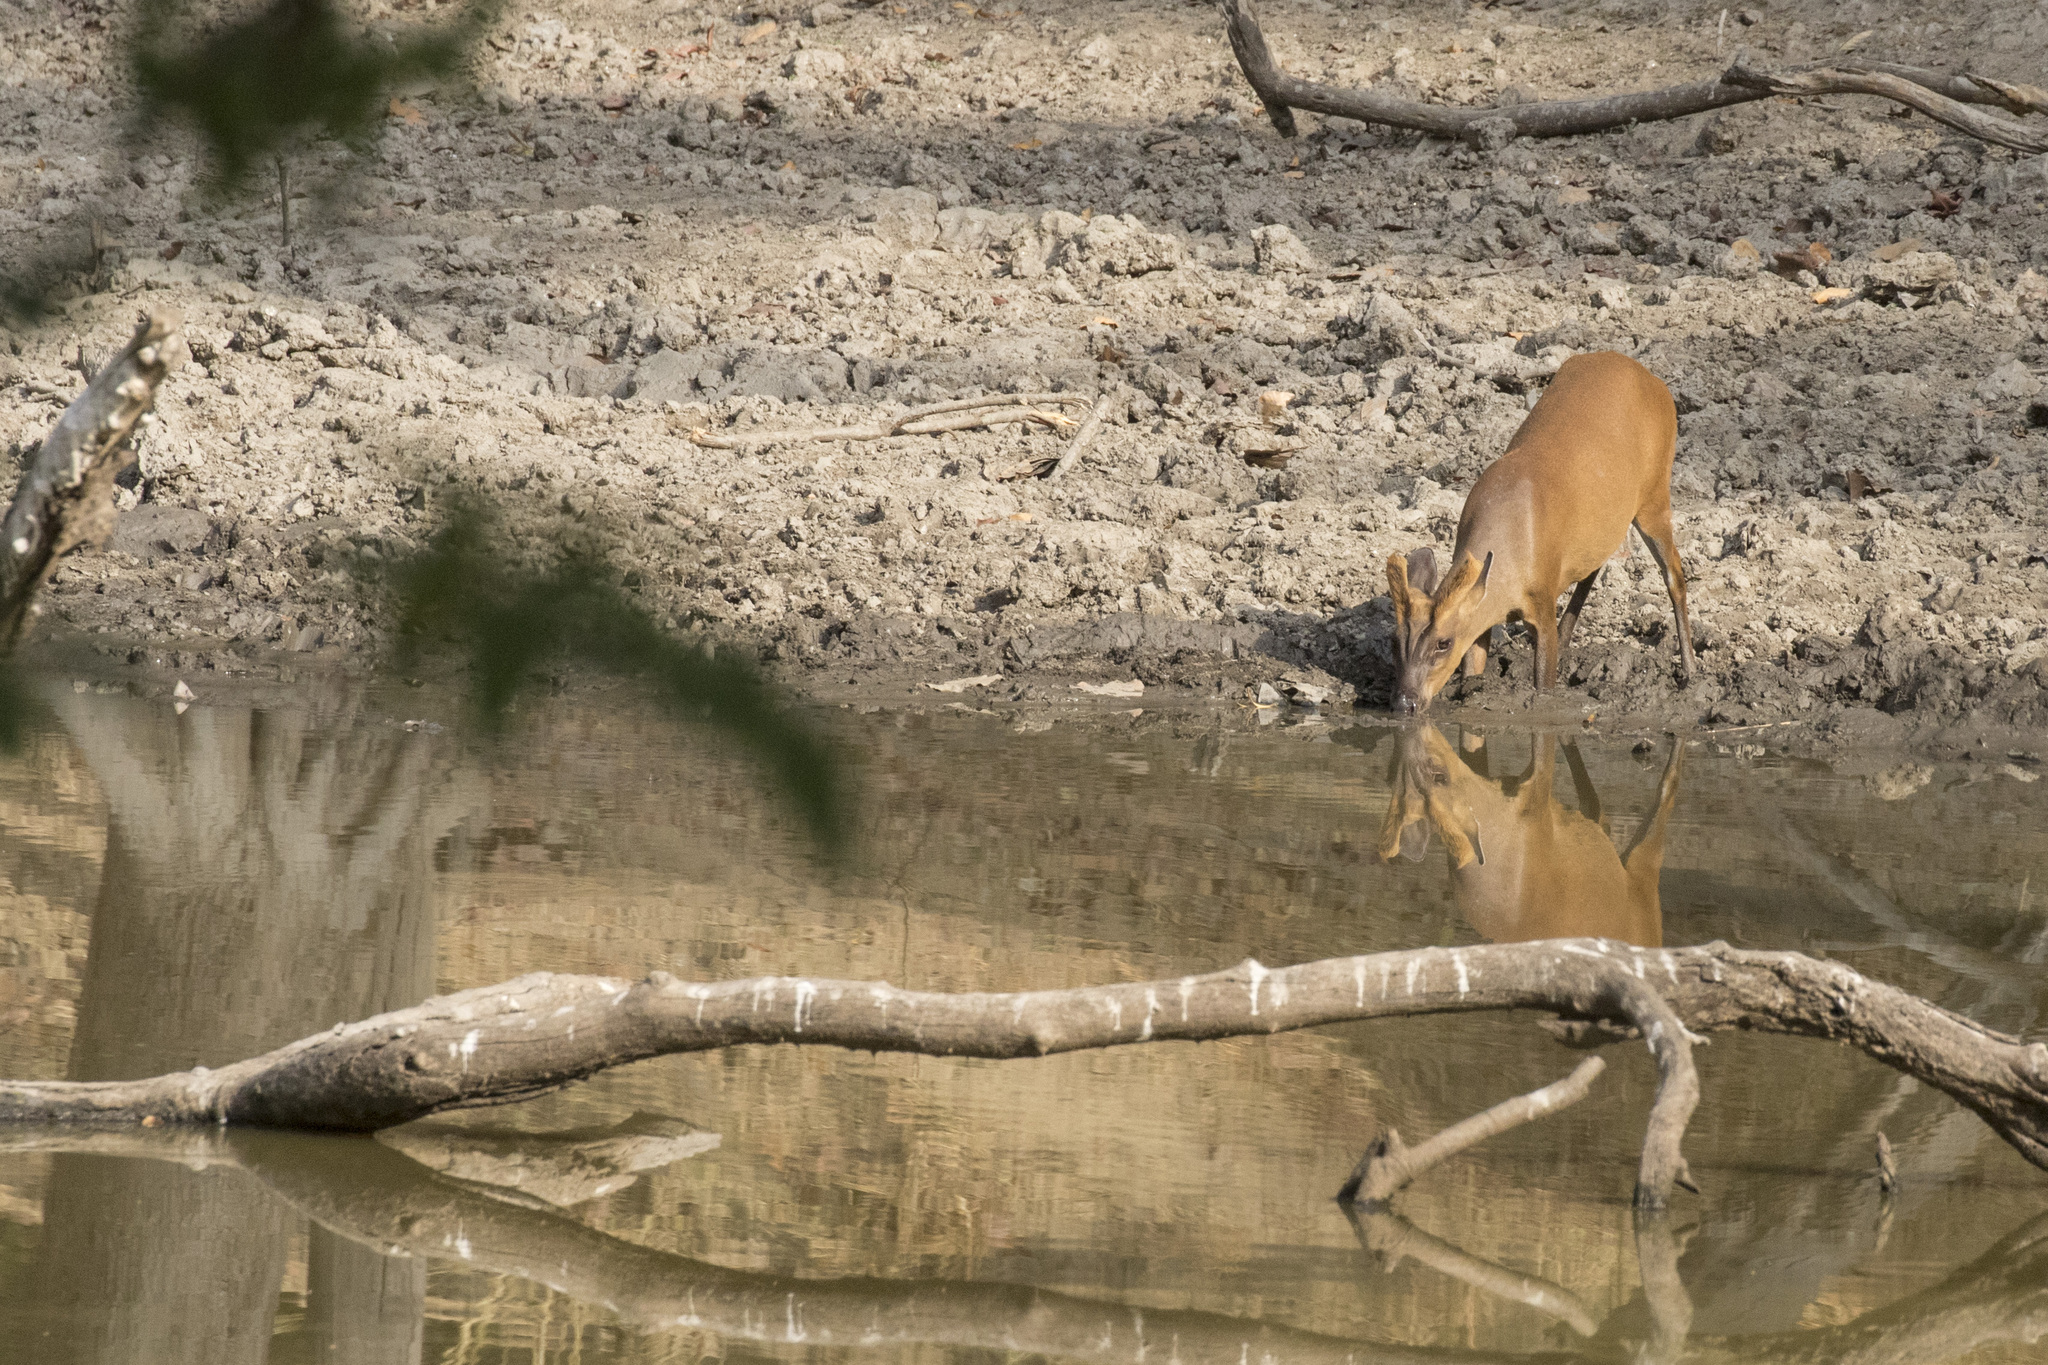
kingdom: Animalia
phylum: Chordata
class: Mammalia
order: Artiodactyla
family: Cervidae
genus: Muntiacus
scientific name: Muntiacus muntjak
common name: Indian muntjac
